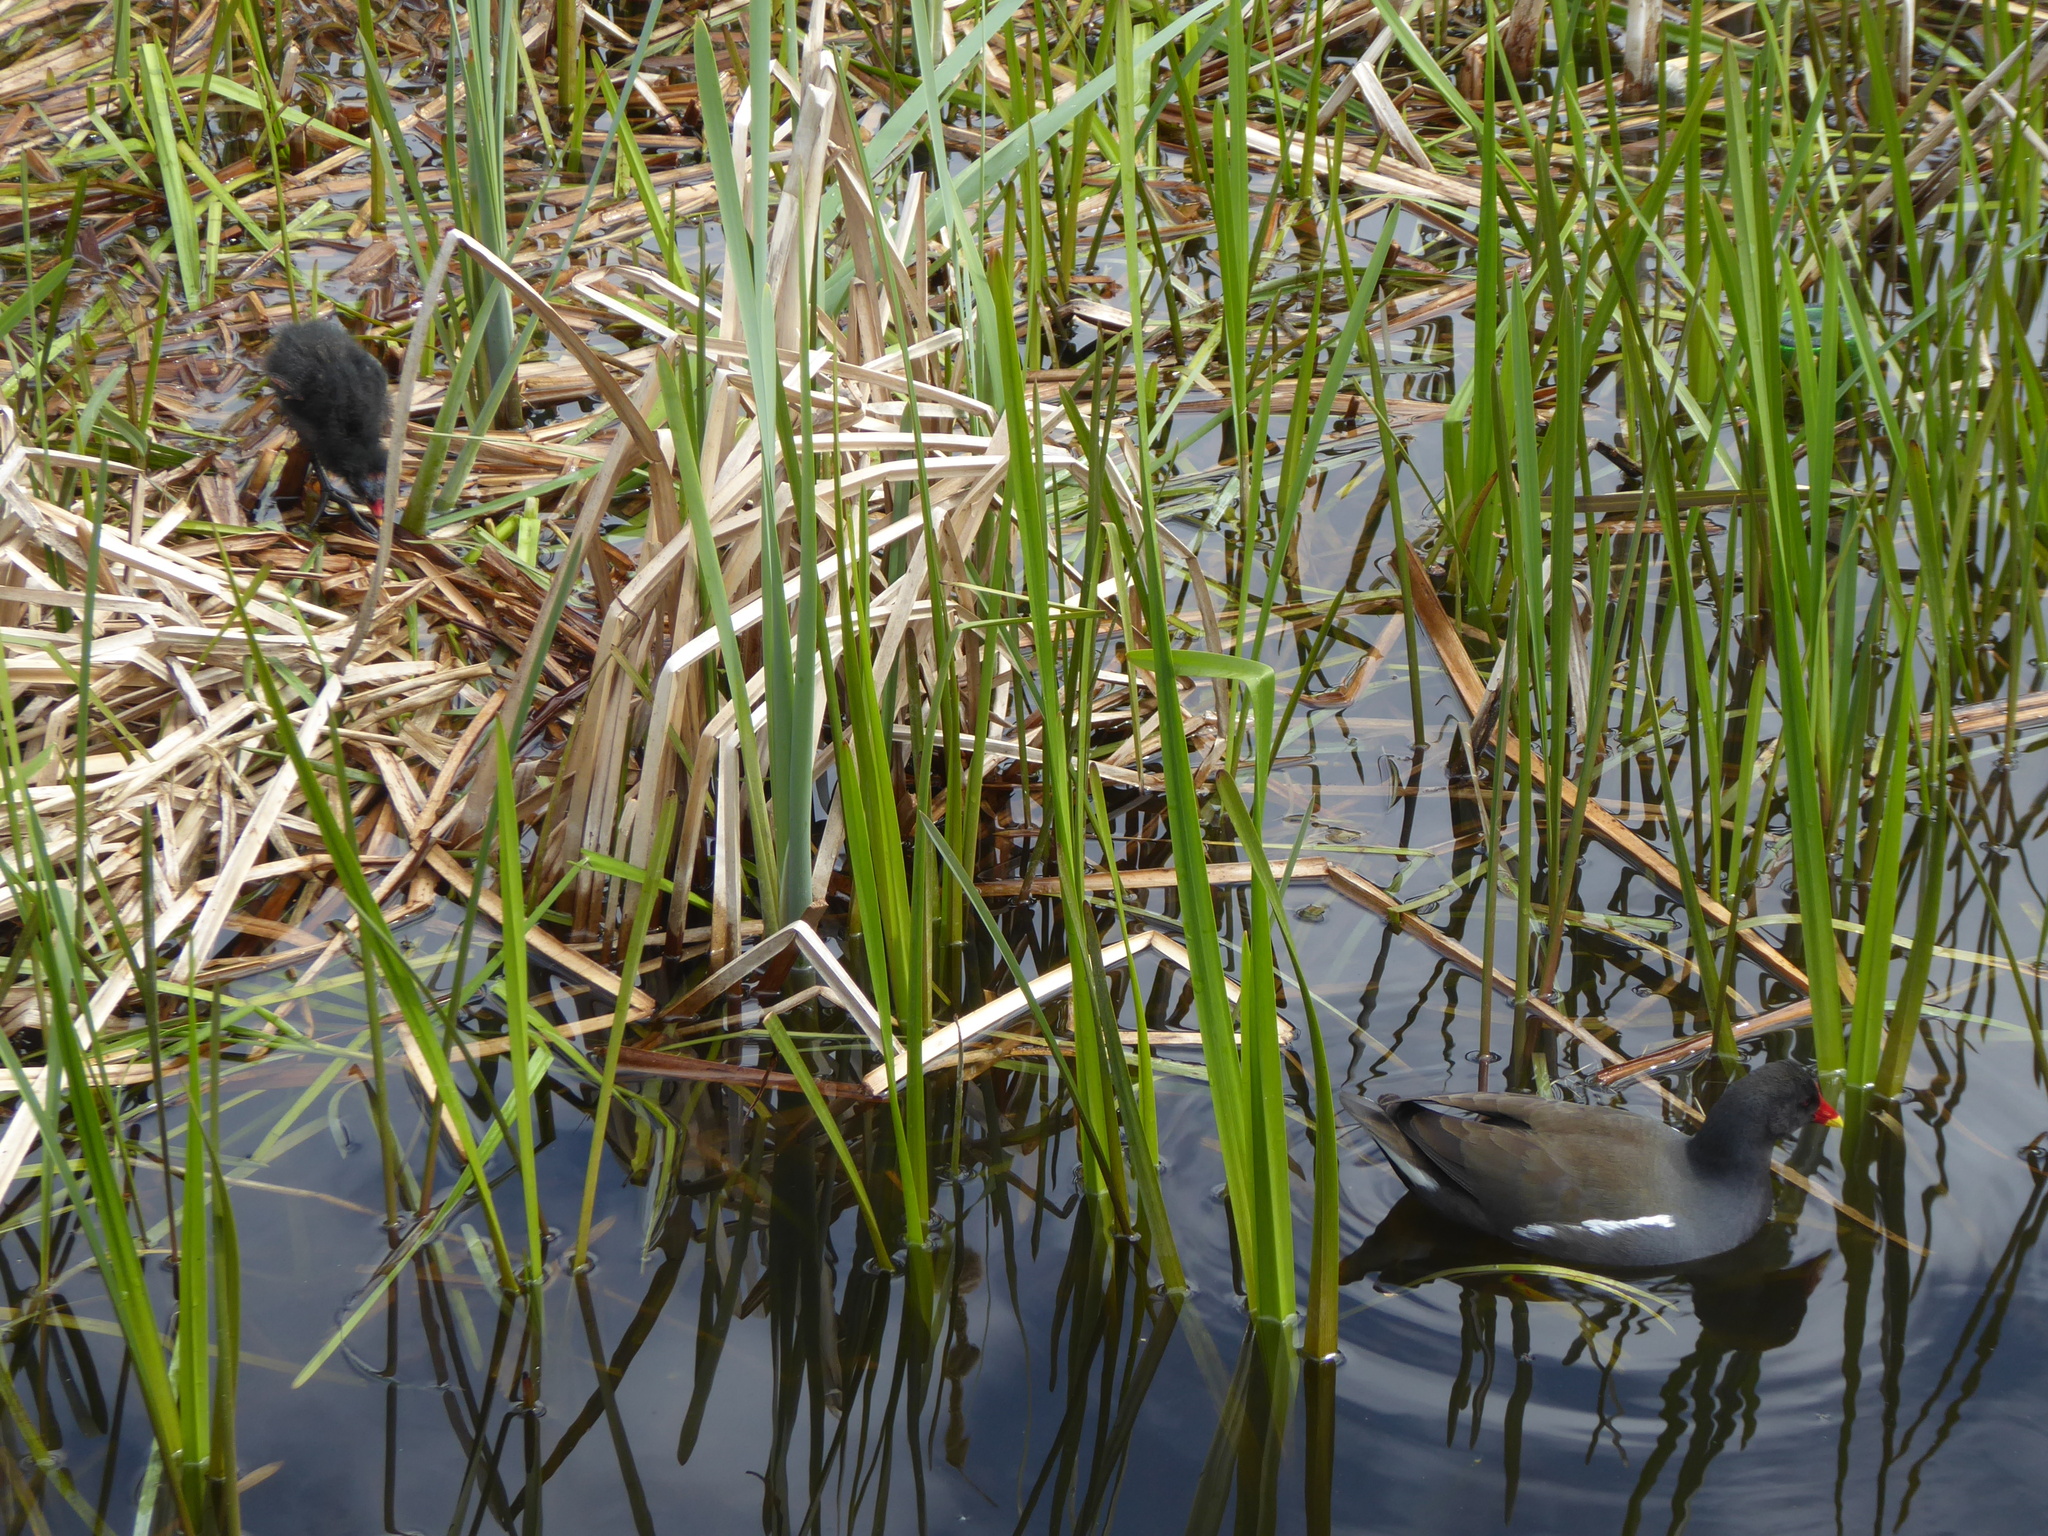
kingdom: Animalia
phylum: Chordata
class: Aves
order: Gruiformes
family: Rallidae
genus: Gallinula
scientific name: Gallinula chloropus
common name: Common moorhen
